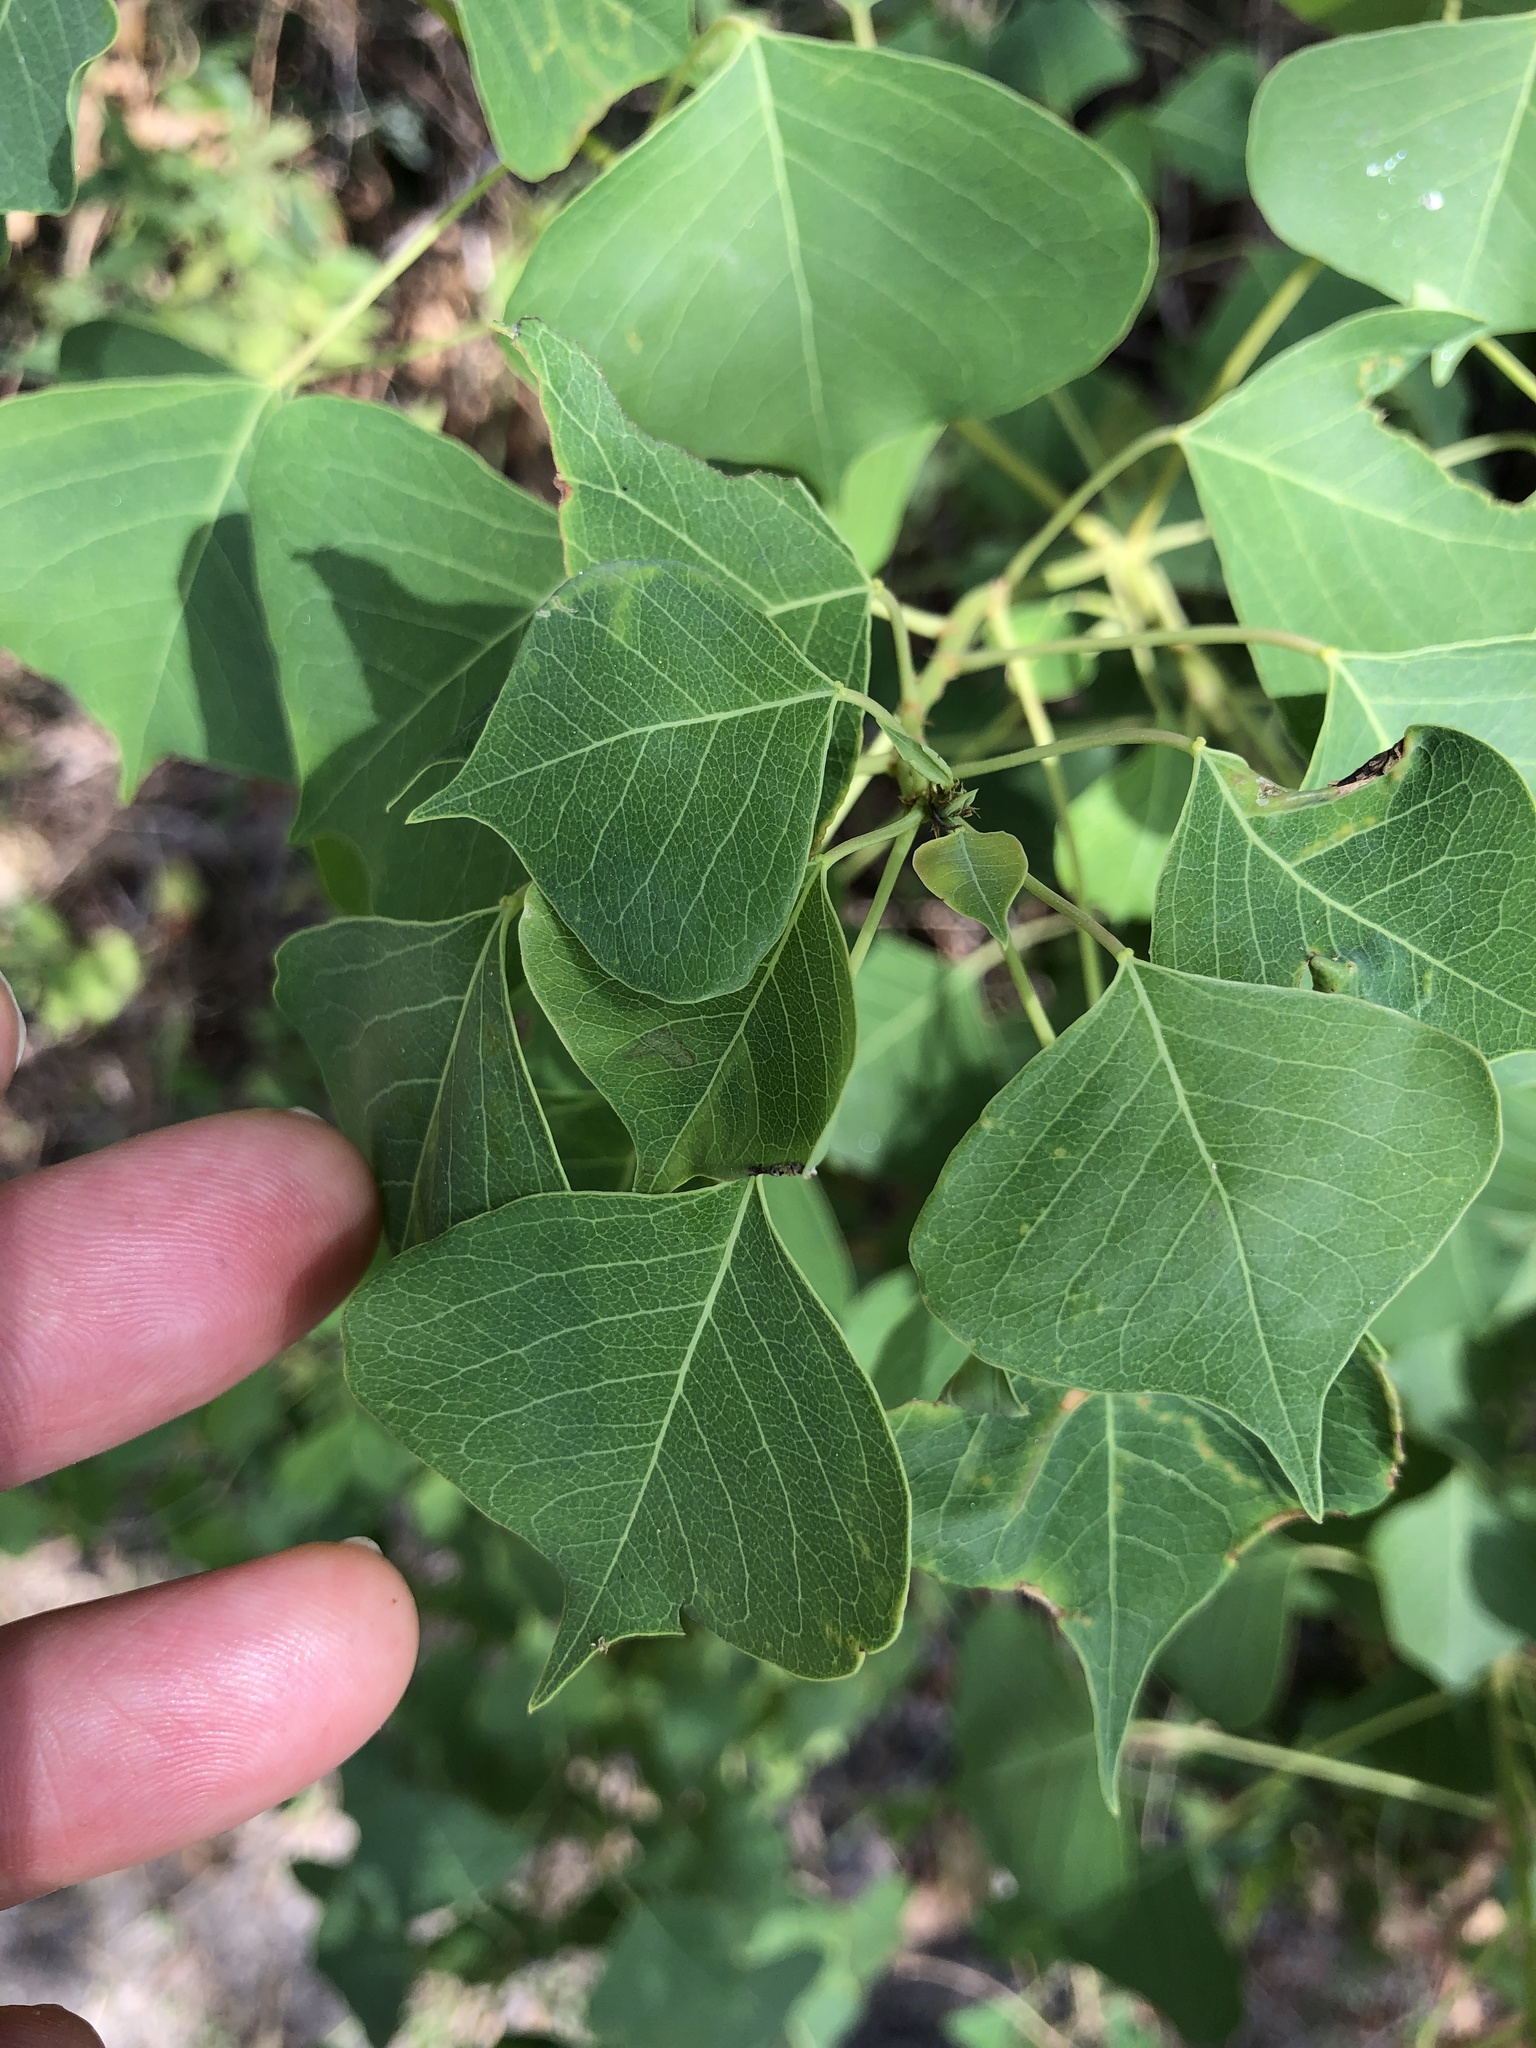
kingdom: Plantae
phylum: Tracheophyta
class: Magnoliopsida
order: Malpighiales
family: Euphorbiaceae
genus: Triadica
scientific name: Triadica sebifera
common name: Chinese tallow
